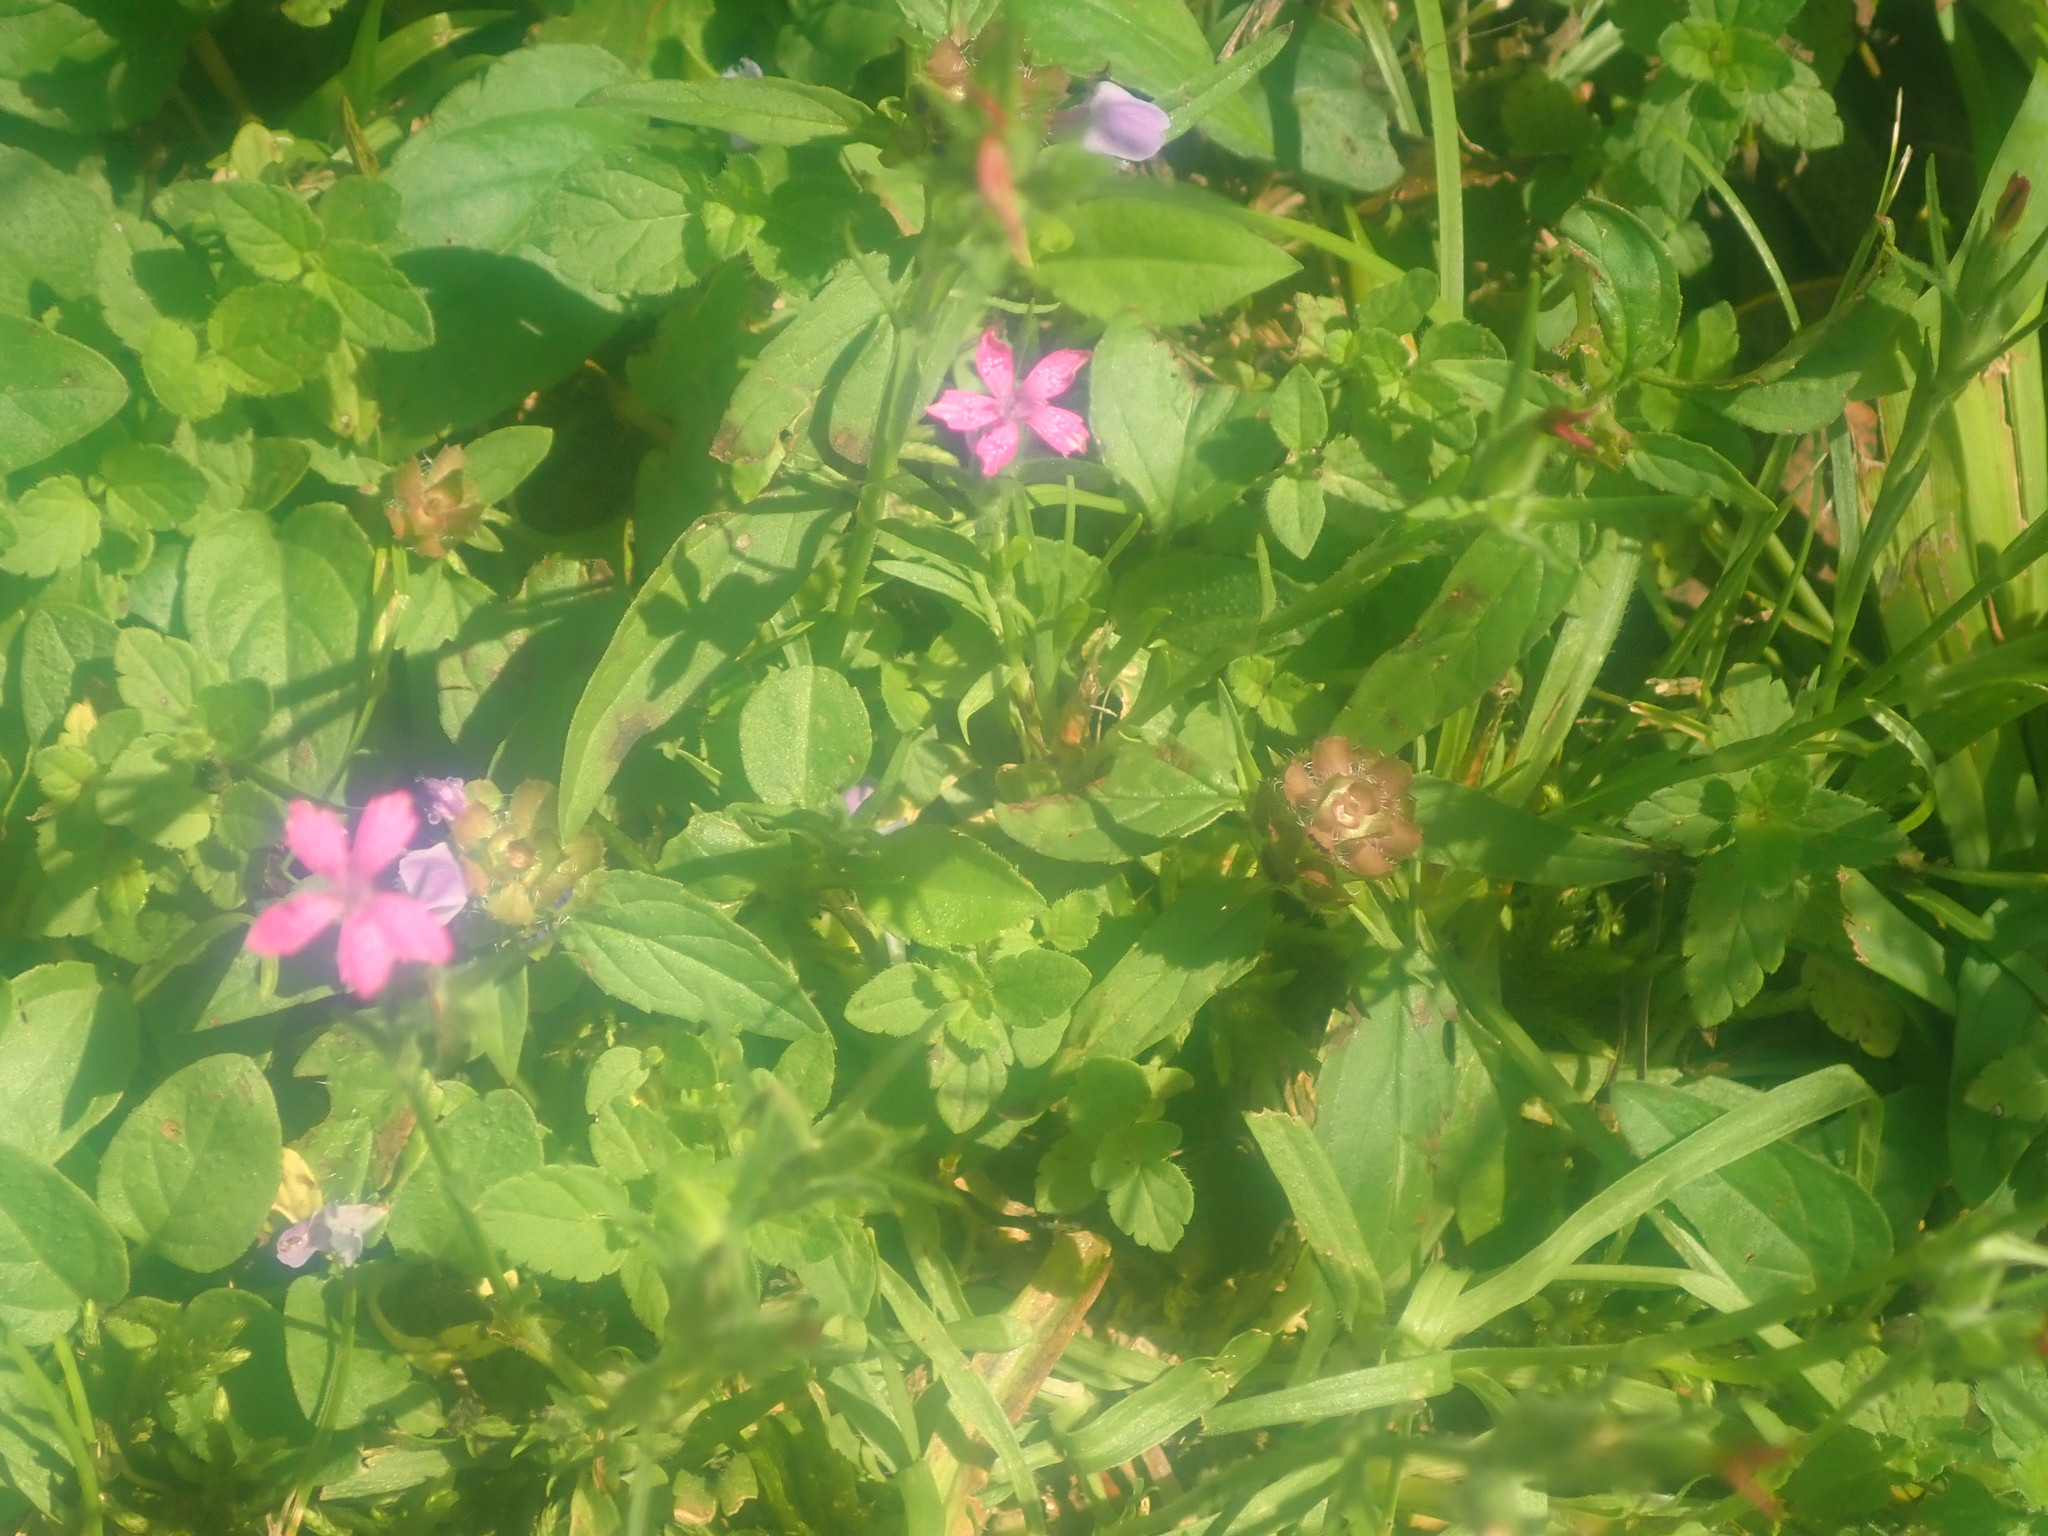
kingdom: Plantae
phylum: Tracheophyta
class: Magnoliopsida
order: Caryophyllales
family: Caryophyllaceae
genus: Dianthus
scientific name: Dianthus armeria
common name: Deptford pink
